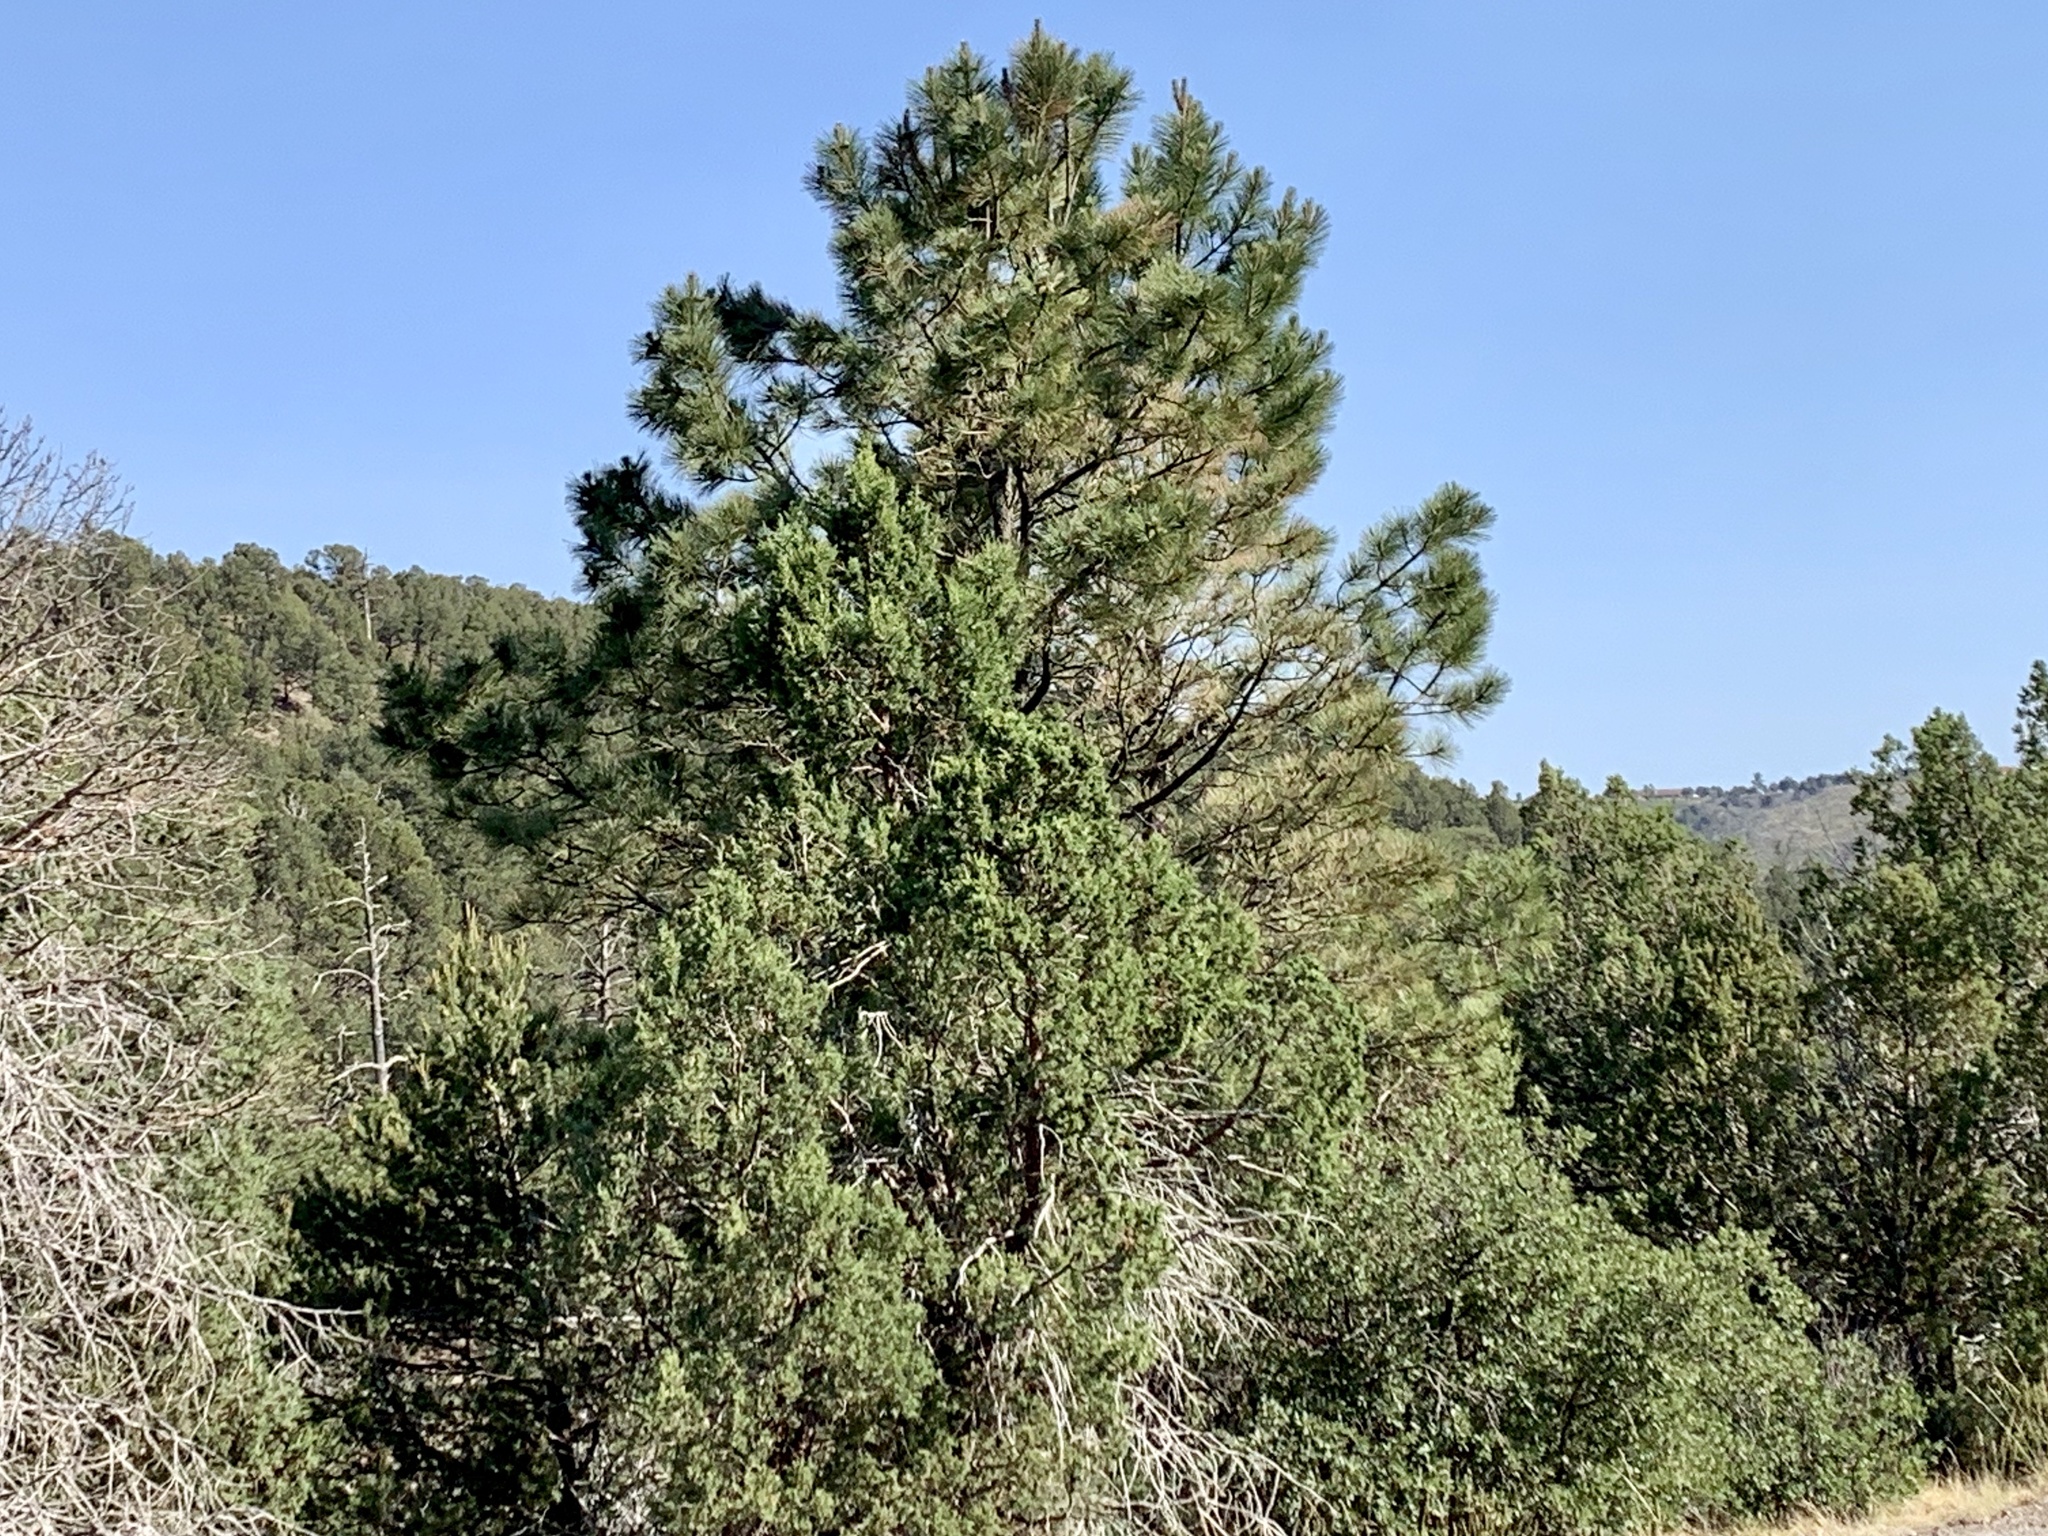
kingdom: Plantae
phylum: Tracheophyta
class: Pinopsida
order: Pinales
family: Pinaceae
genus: Pinus
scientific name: Pinus ponderosa
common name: Western yellow-pine
